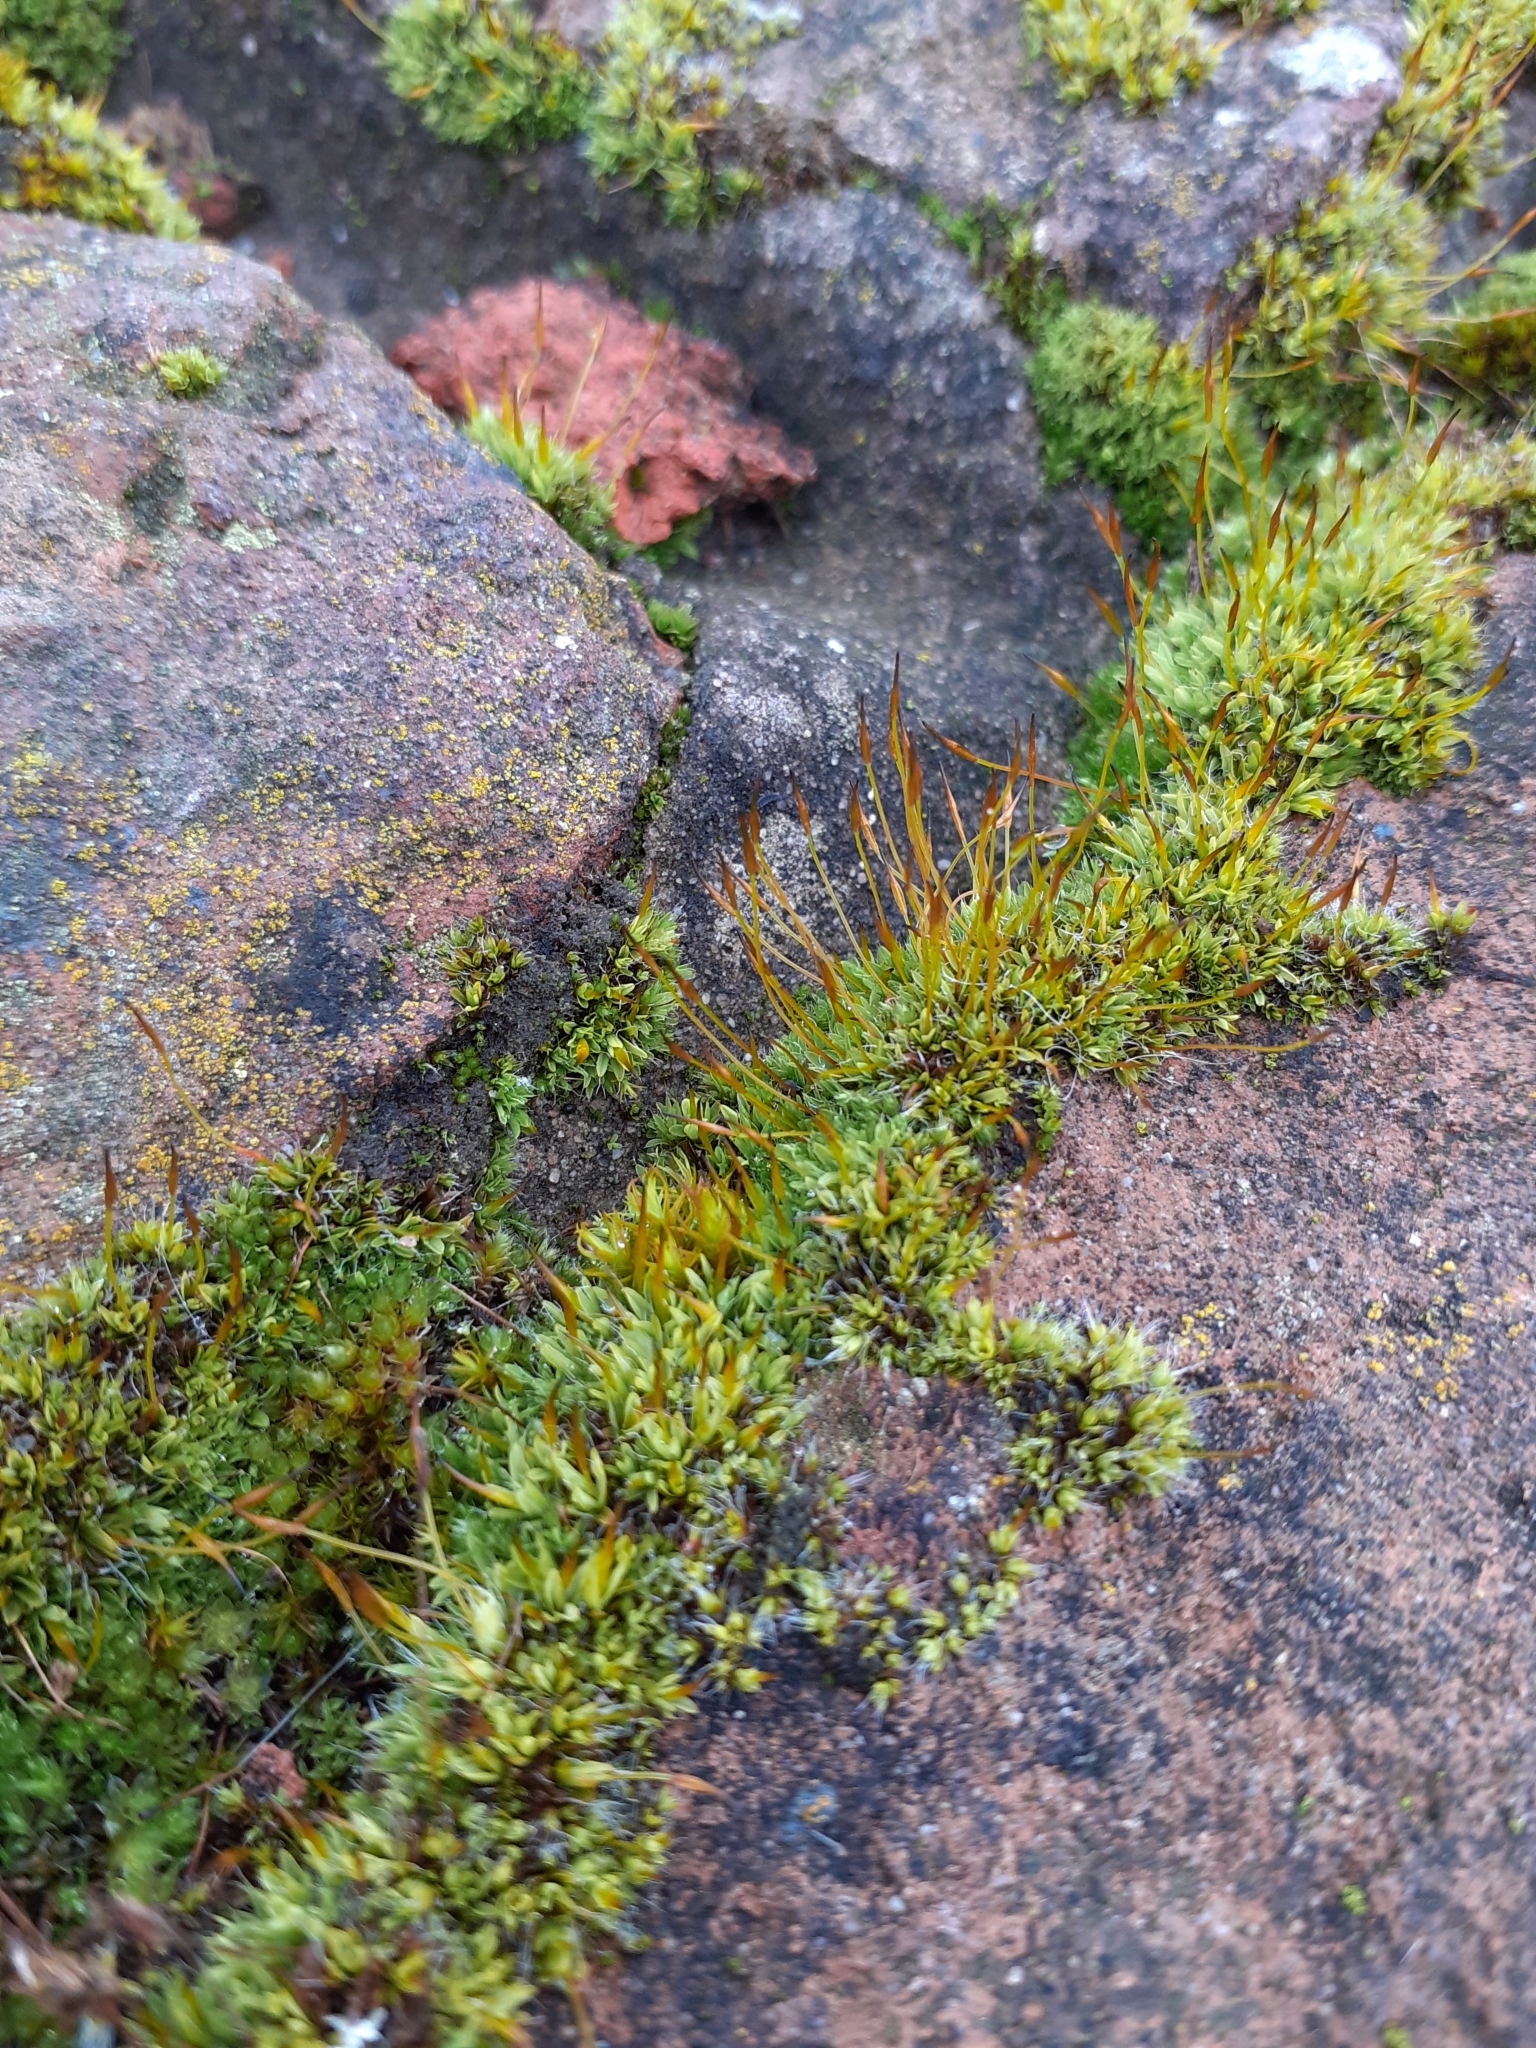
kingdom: Plantae
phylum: Bryophyta
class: Bryopsida
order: Pottiales
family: Pottiaceae
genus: Tortula
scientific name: Tortula muralis
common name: Wall screw-moss
